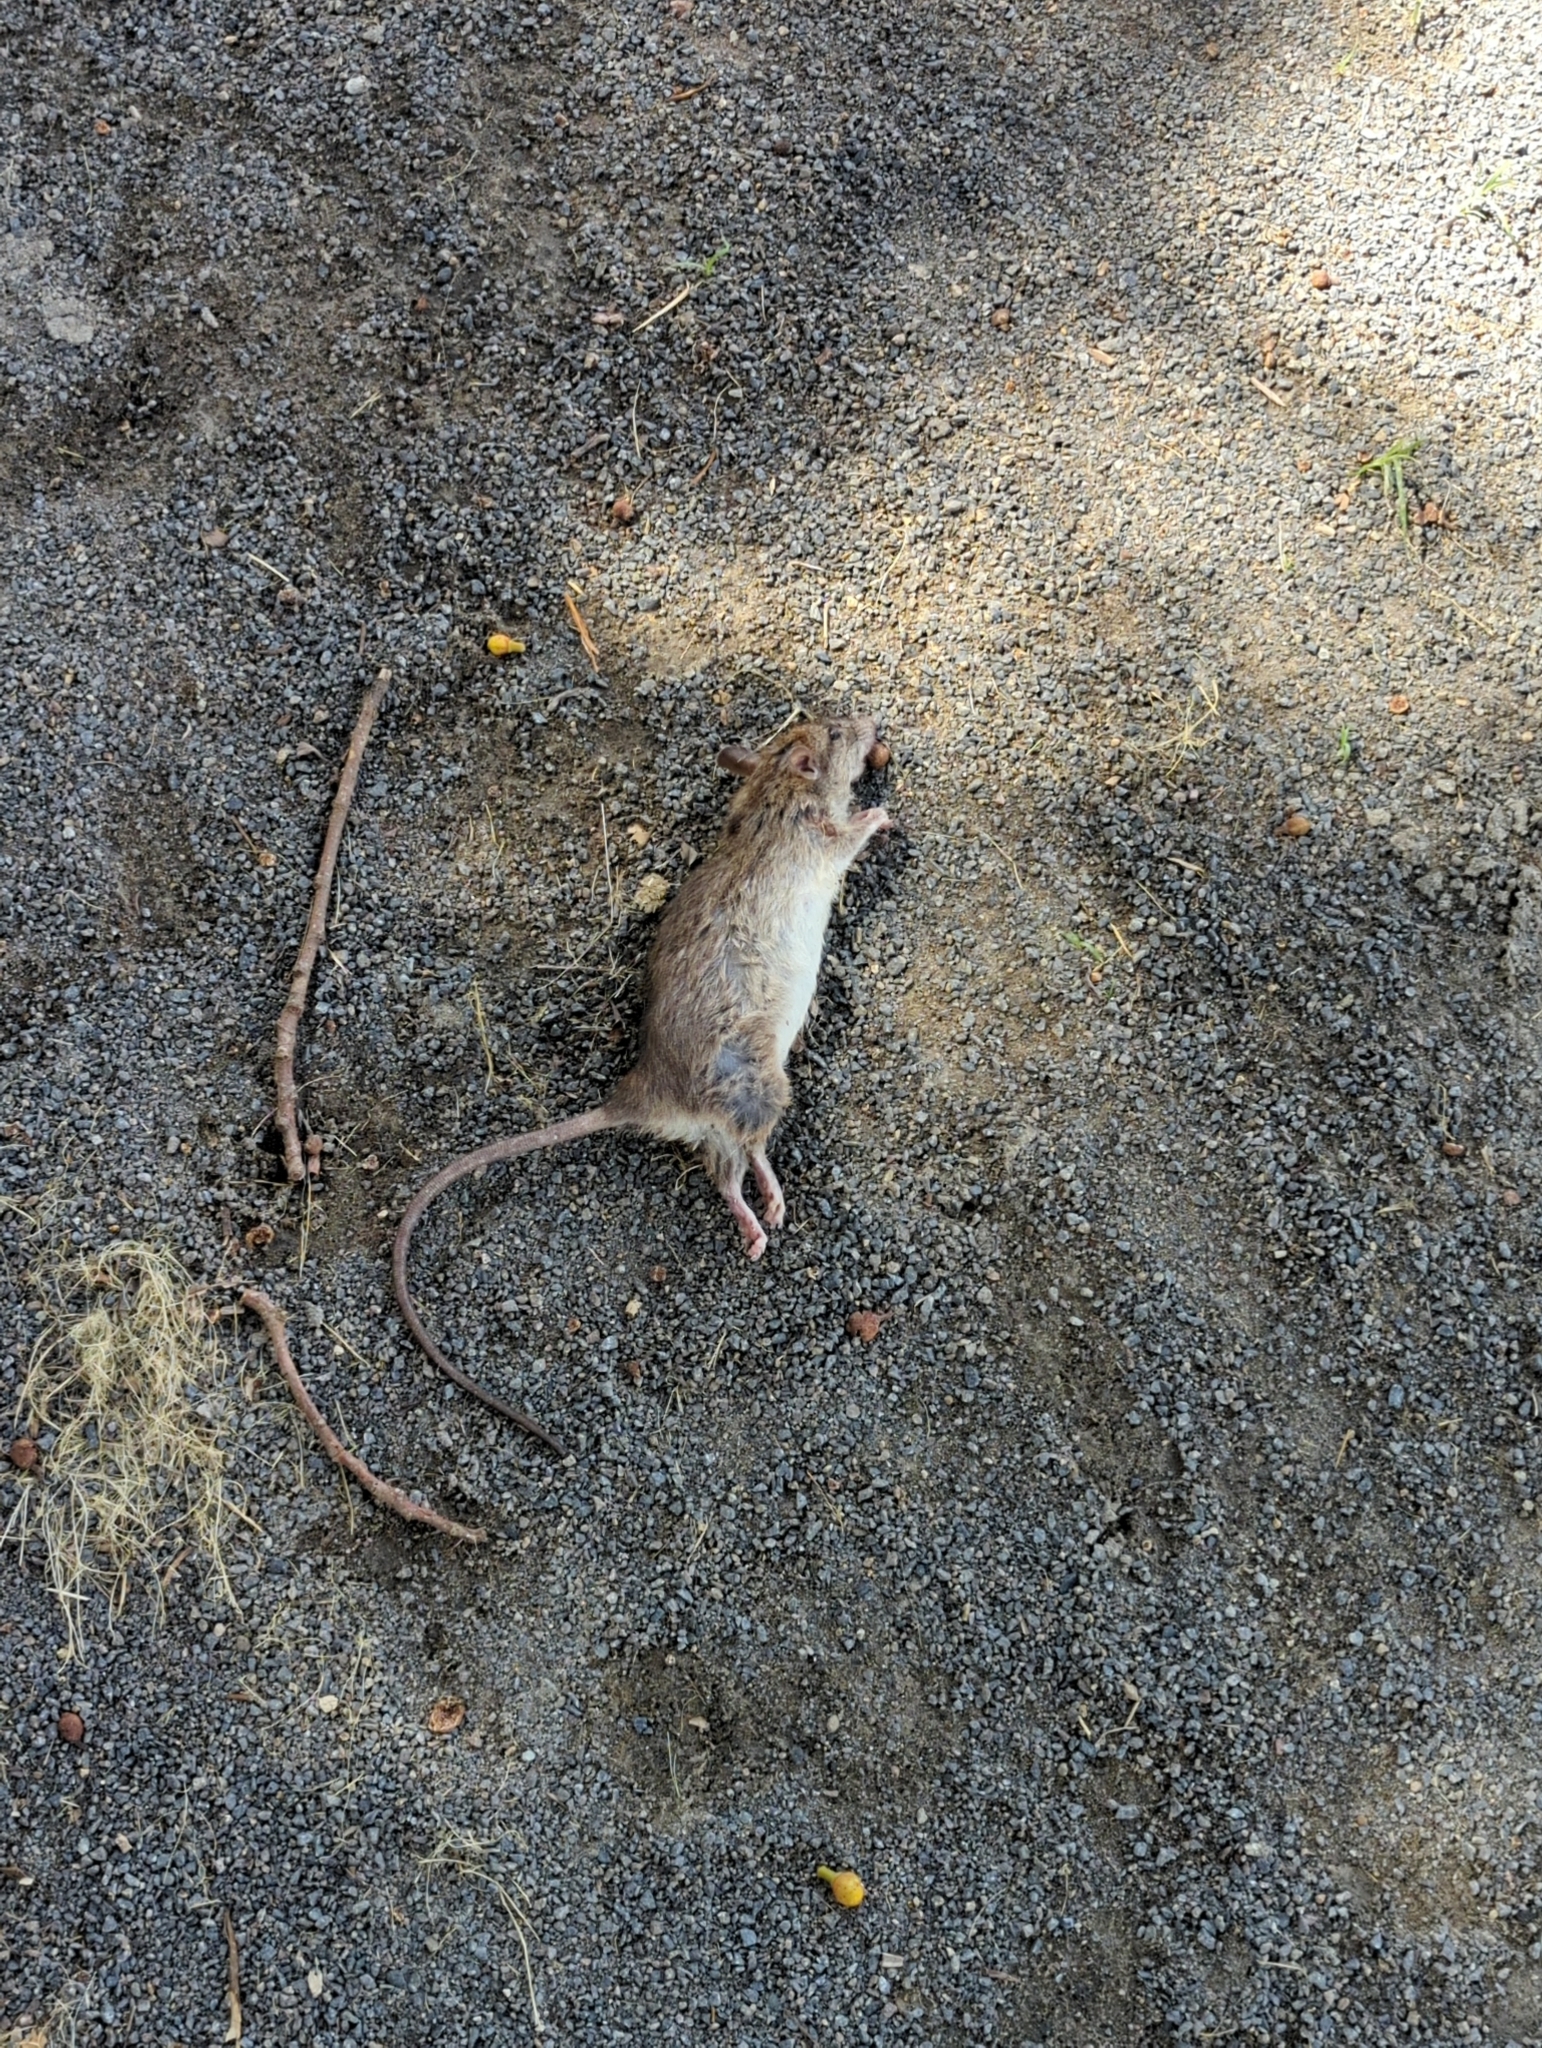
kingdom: Animalia
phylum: Chordata
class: Mammalia
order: Rodentia
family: Muridae
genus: Rattus
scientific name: Rattus rattus
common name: Black rat
